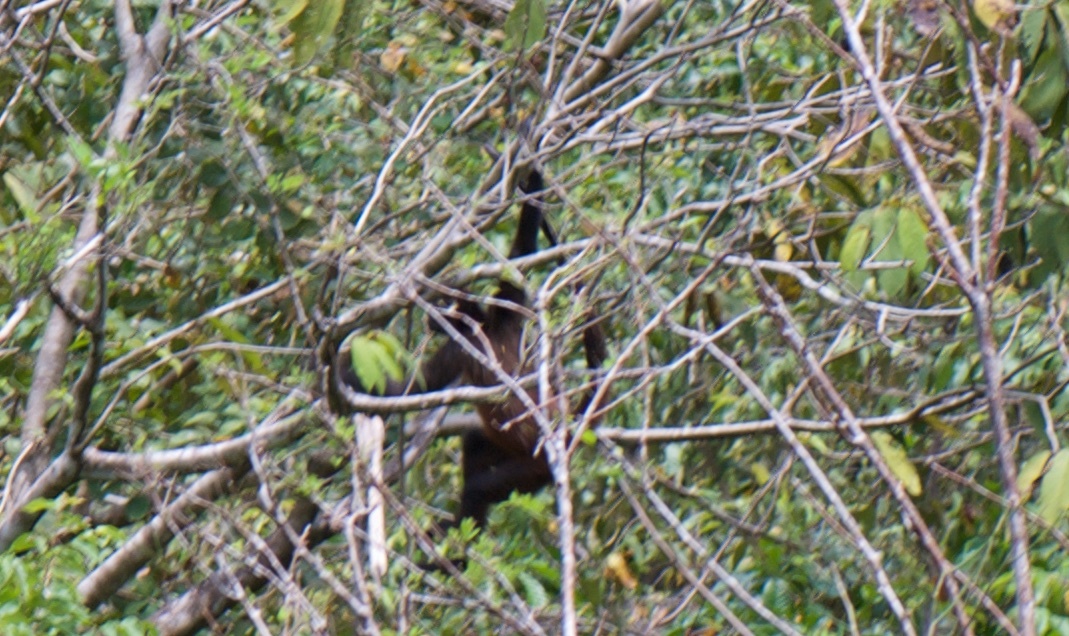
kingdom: Animalia
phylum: Chordata
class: Mammalia
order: Primates
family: Atelidae
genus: Ateles
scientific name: Ateles geoffroyi
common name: Black-handed spider monkey
